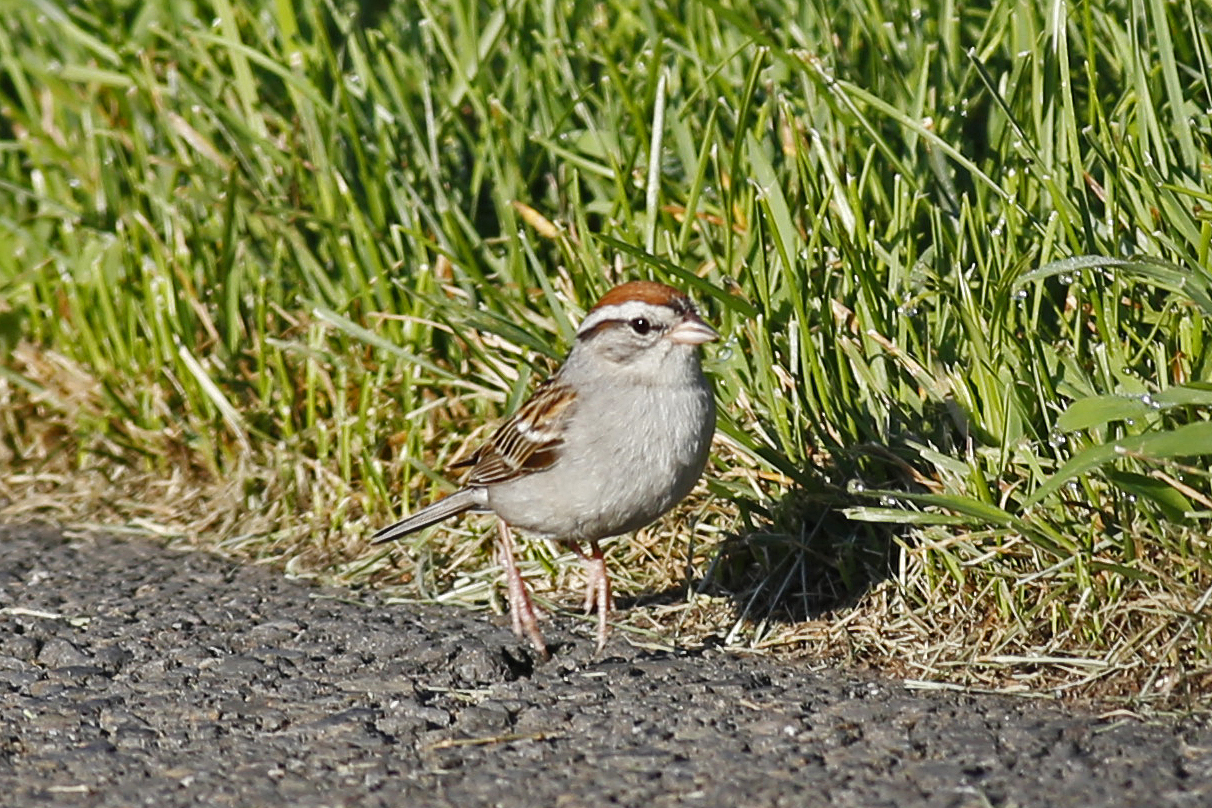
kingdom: Animalia
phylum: Chordata
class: Aves
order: Passeriformes
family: Passerellidae
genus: Spizella
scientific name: Spizella passerina
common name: Chipping sparrow
